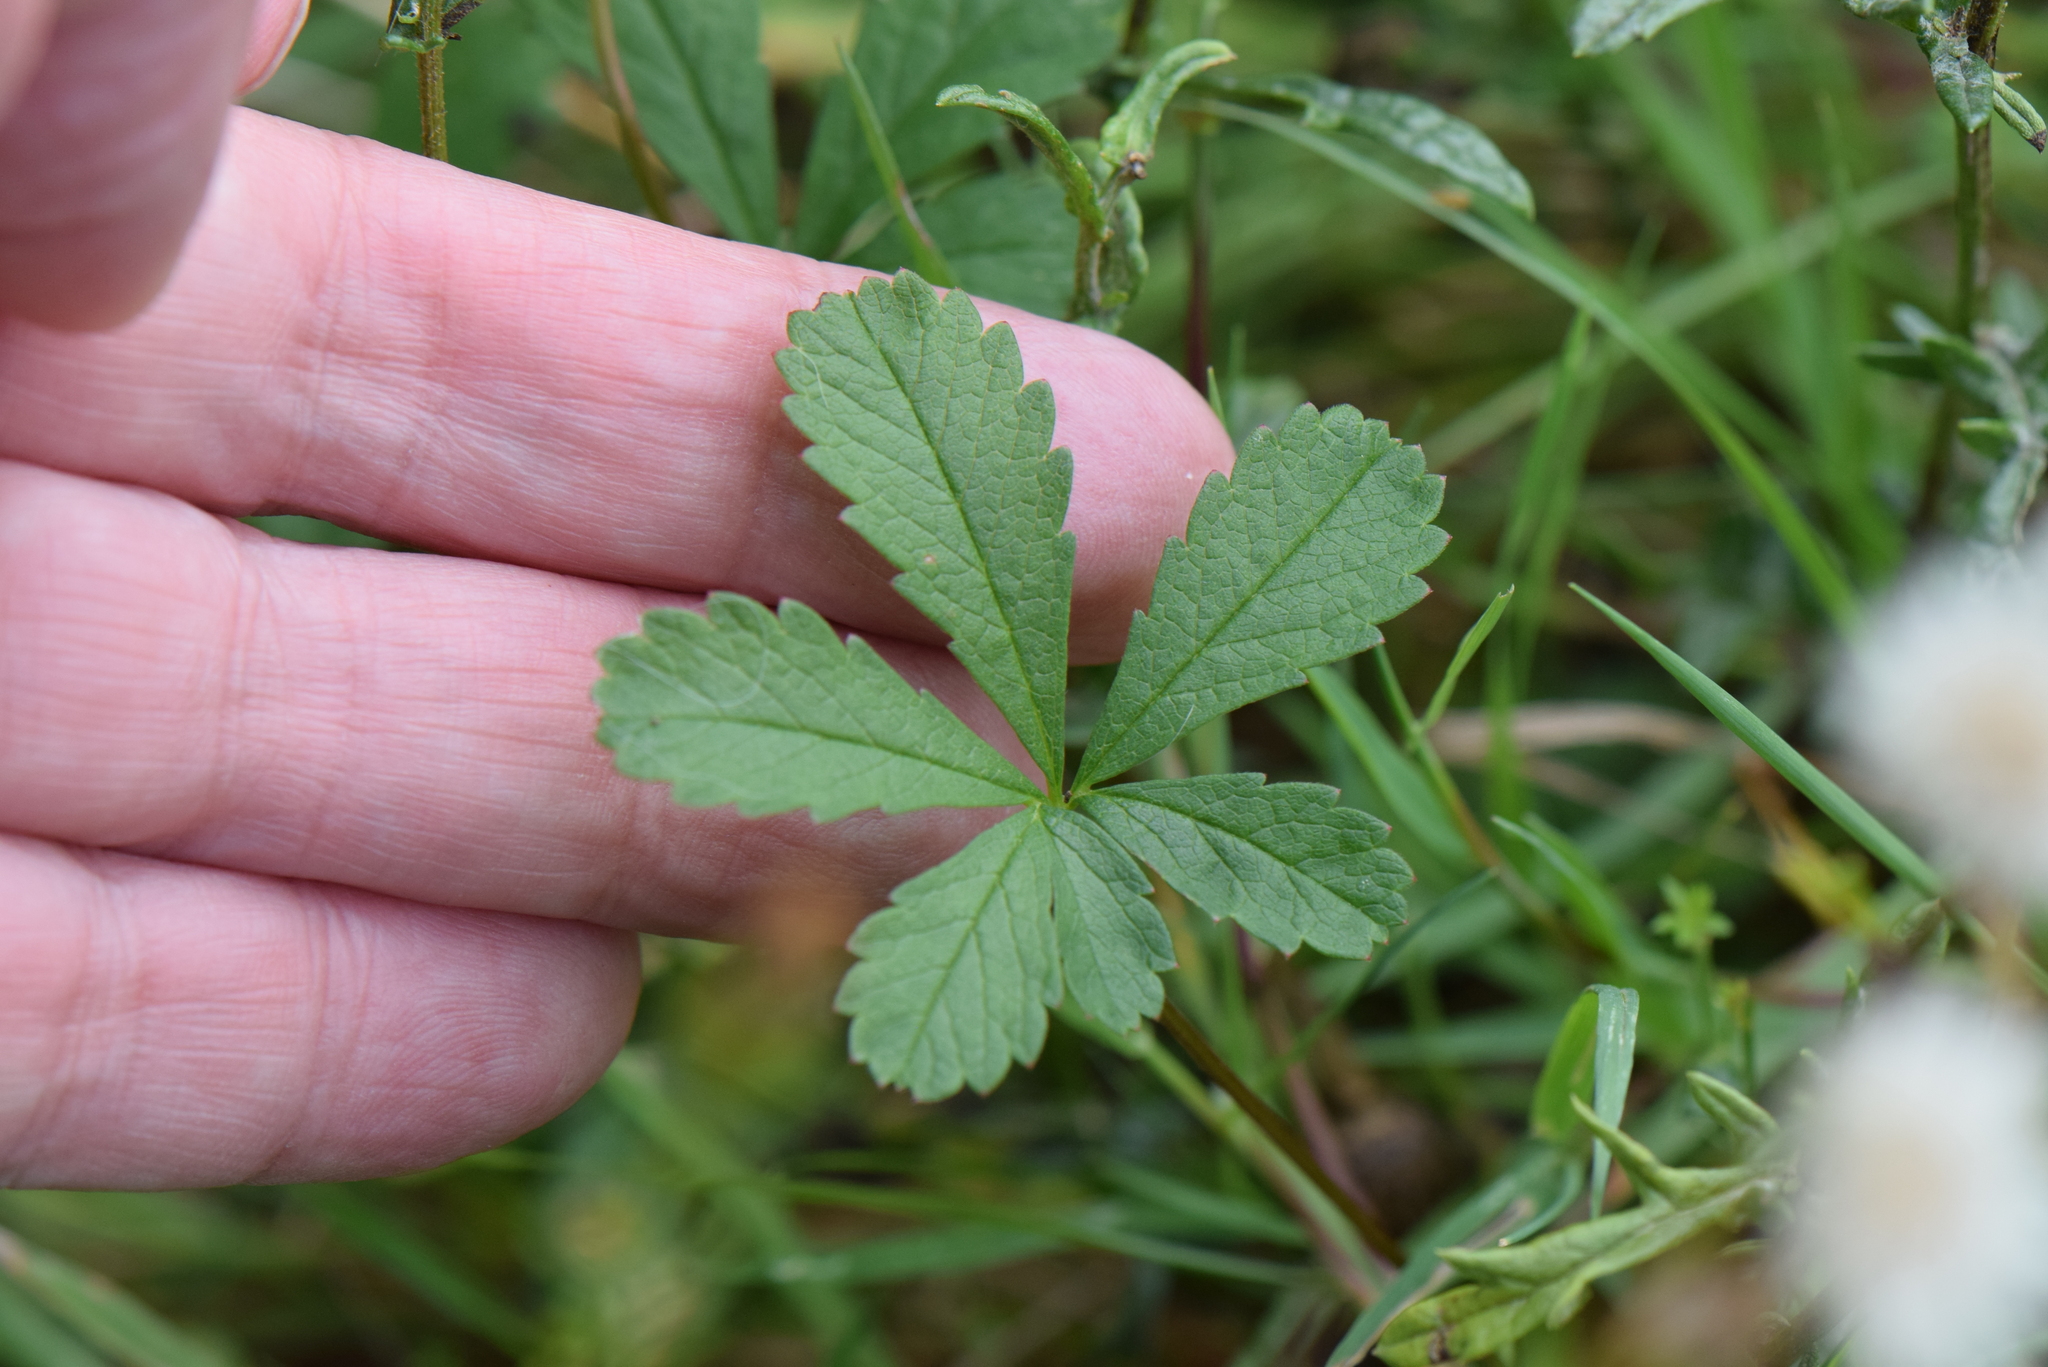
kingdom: Plantae
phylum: Tracheophyta
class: Magnoliopsida
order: Rosales
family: Rosaceae
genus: Potentilla
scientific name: Potentilla reptans
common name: Creeping cinquefoil
